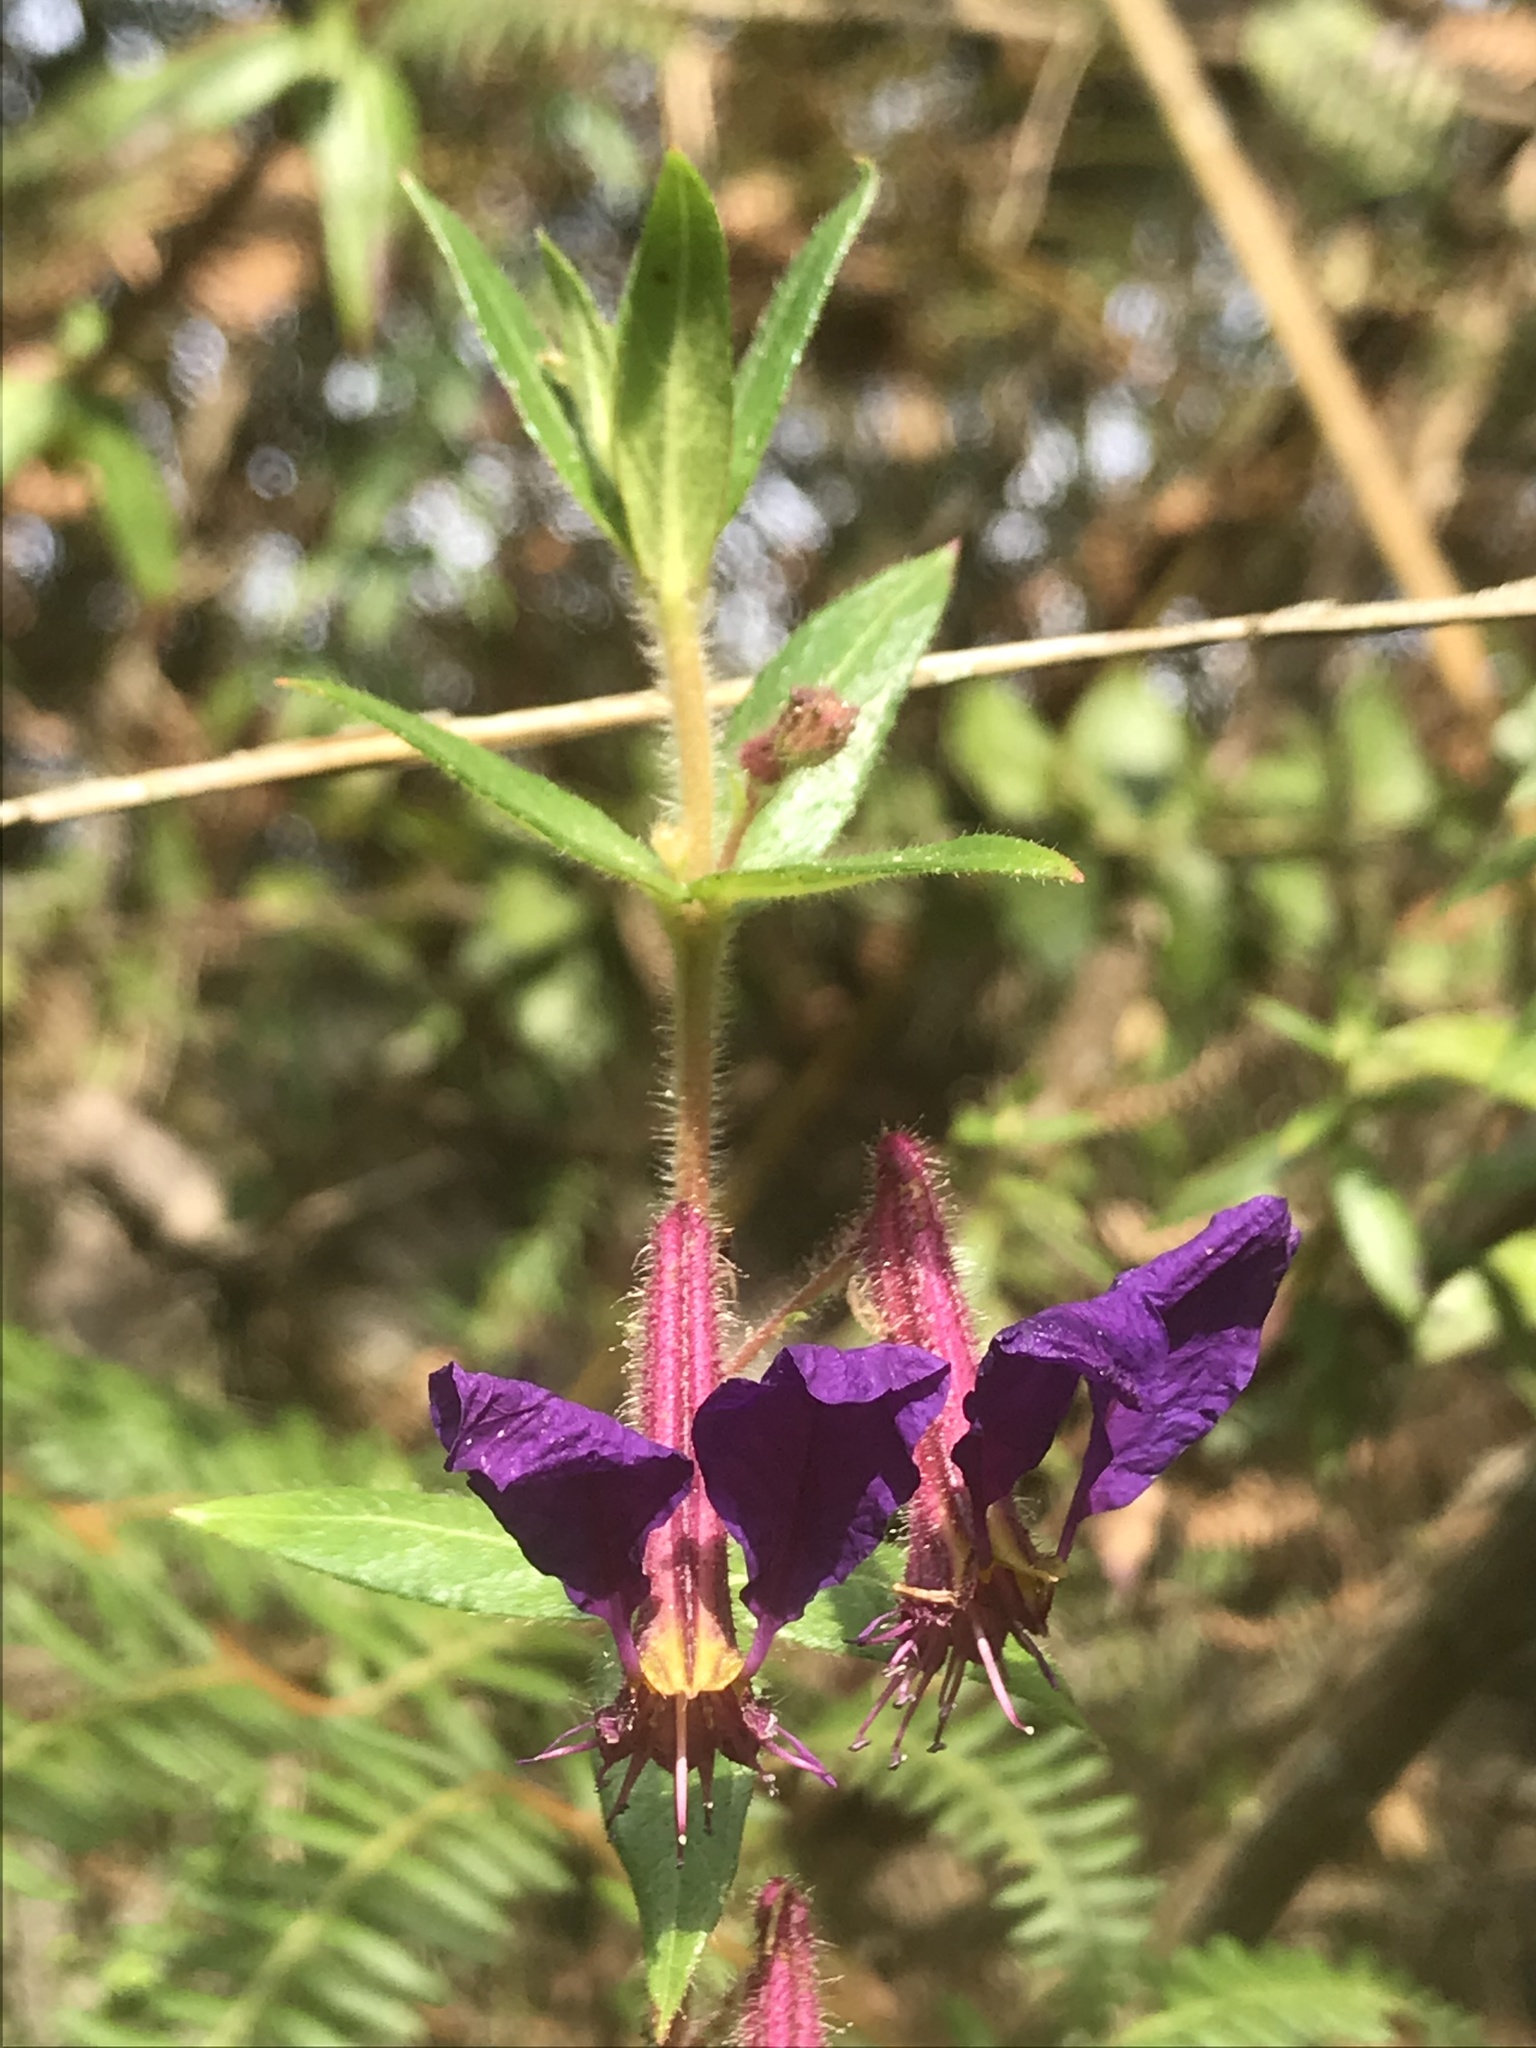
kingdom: Plantae
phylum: Tracheophyta
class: Magnoliopsida
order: Myrtales
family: Lythraceae
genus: Cuphea
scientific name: Cuphea dipetala
